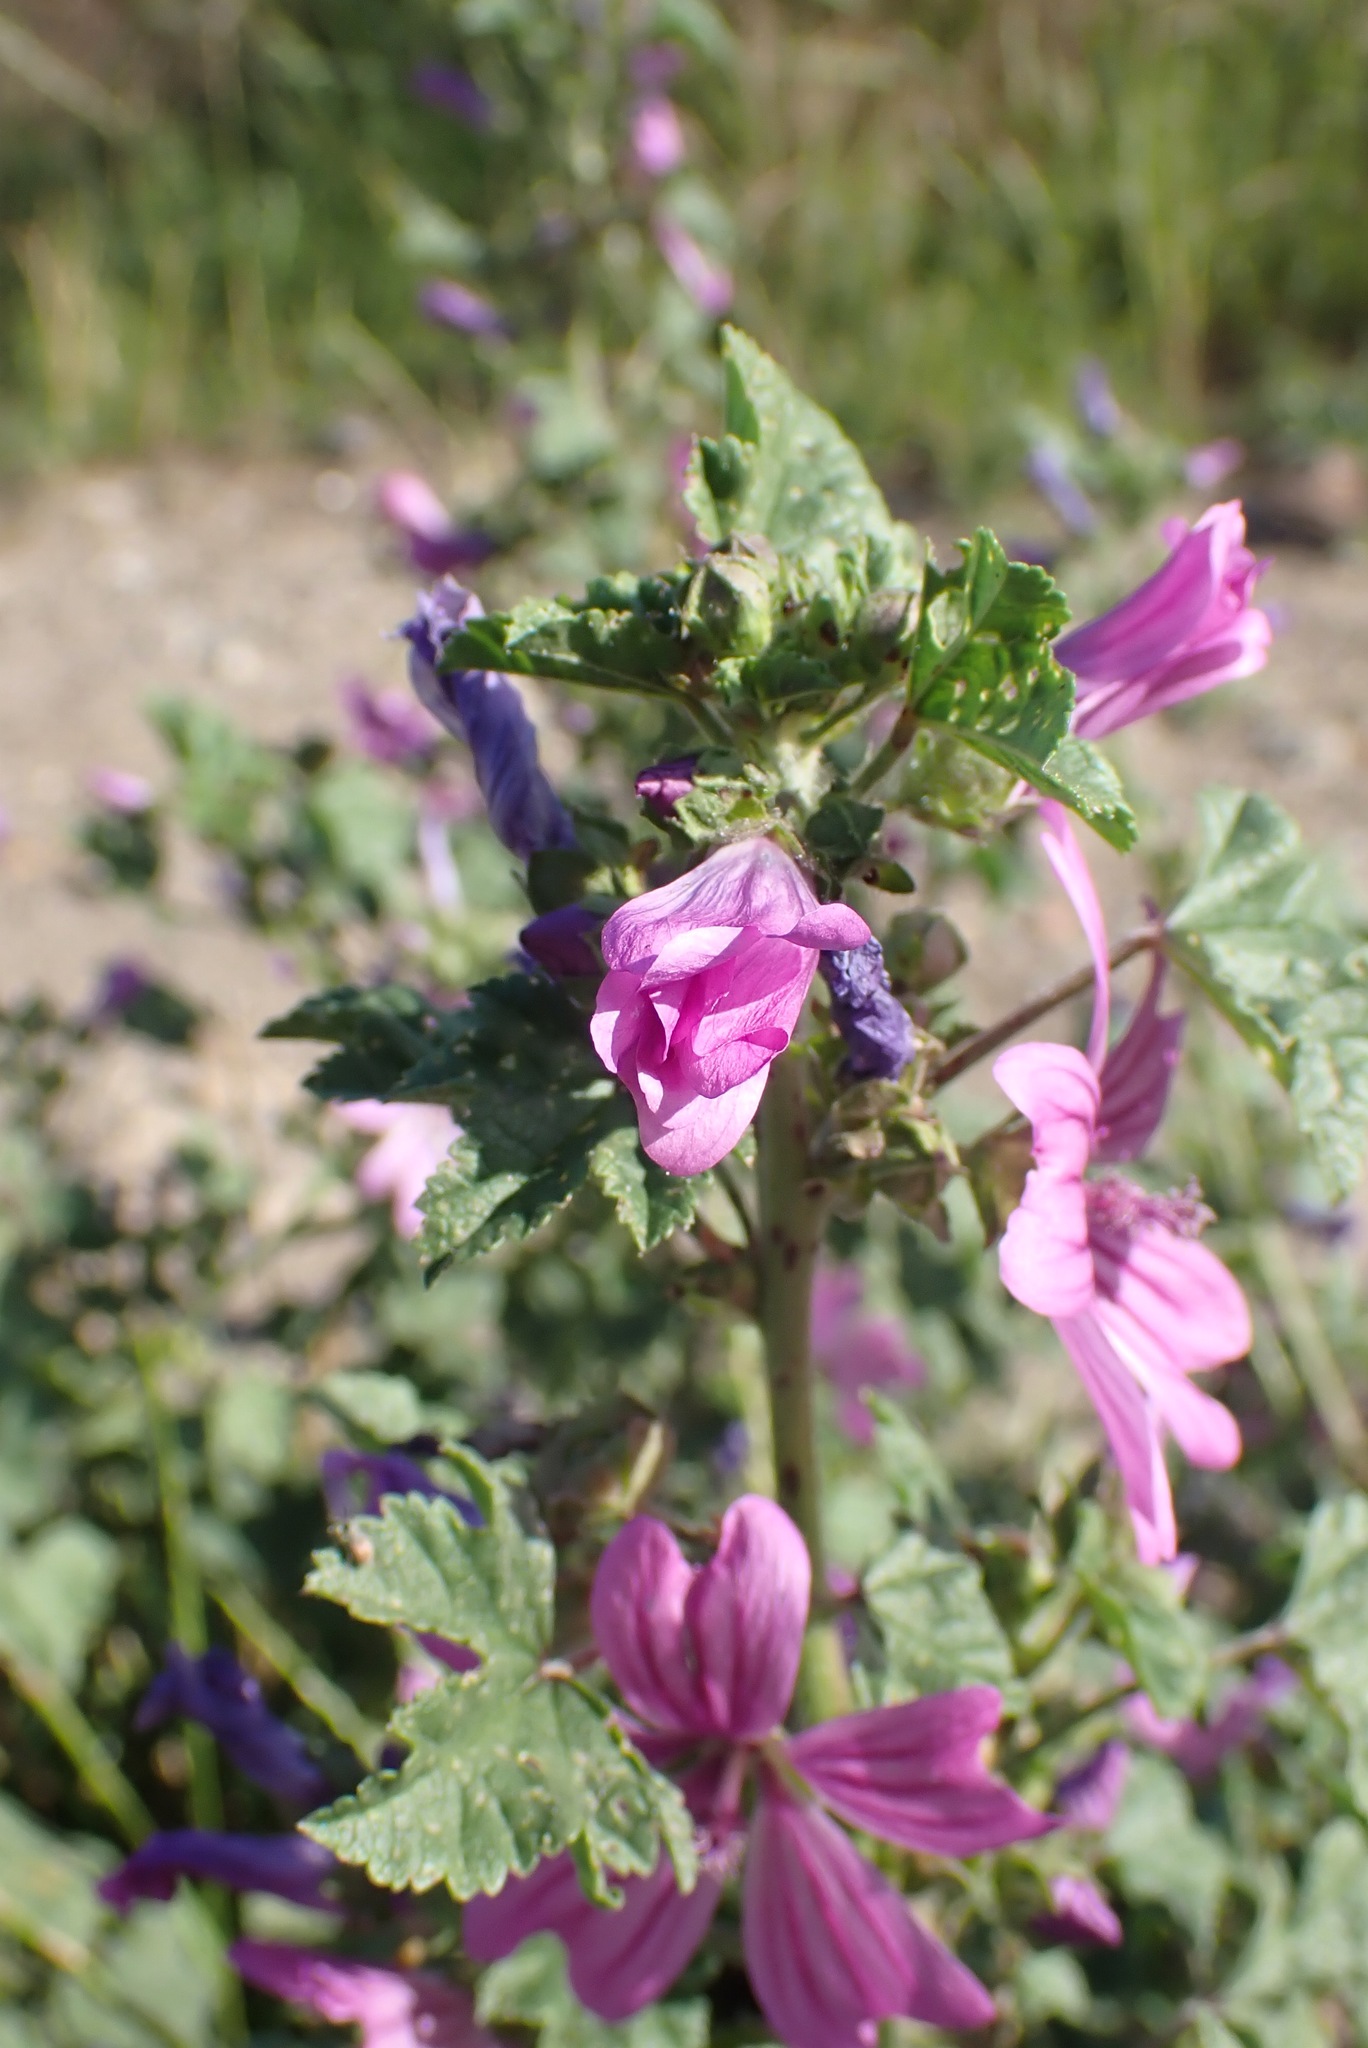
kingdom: Plantae
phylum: Tracheophyta
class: Magnoliopsida
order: Malvales
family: Malvaceae
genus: Malva
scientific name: Malva sylvestris
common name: Common mallow
